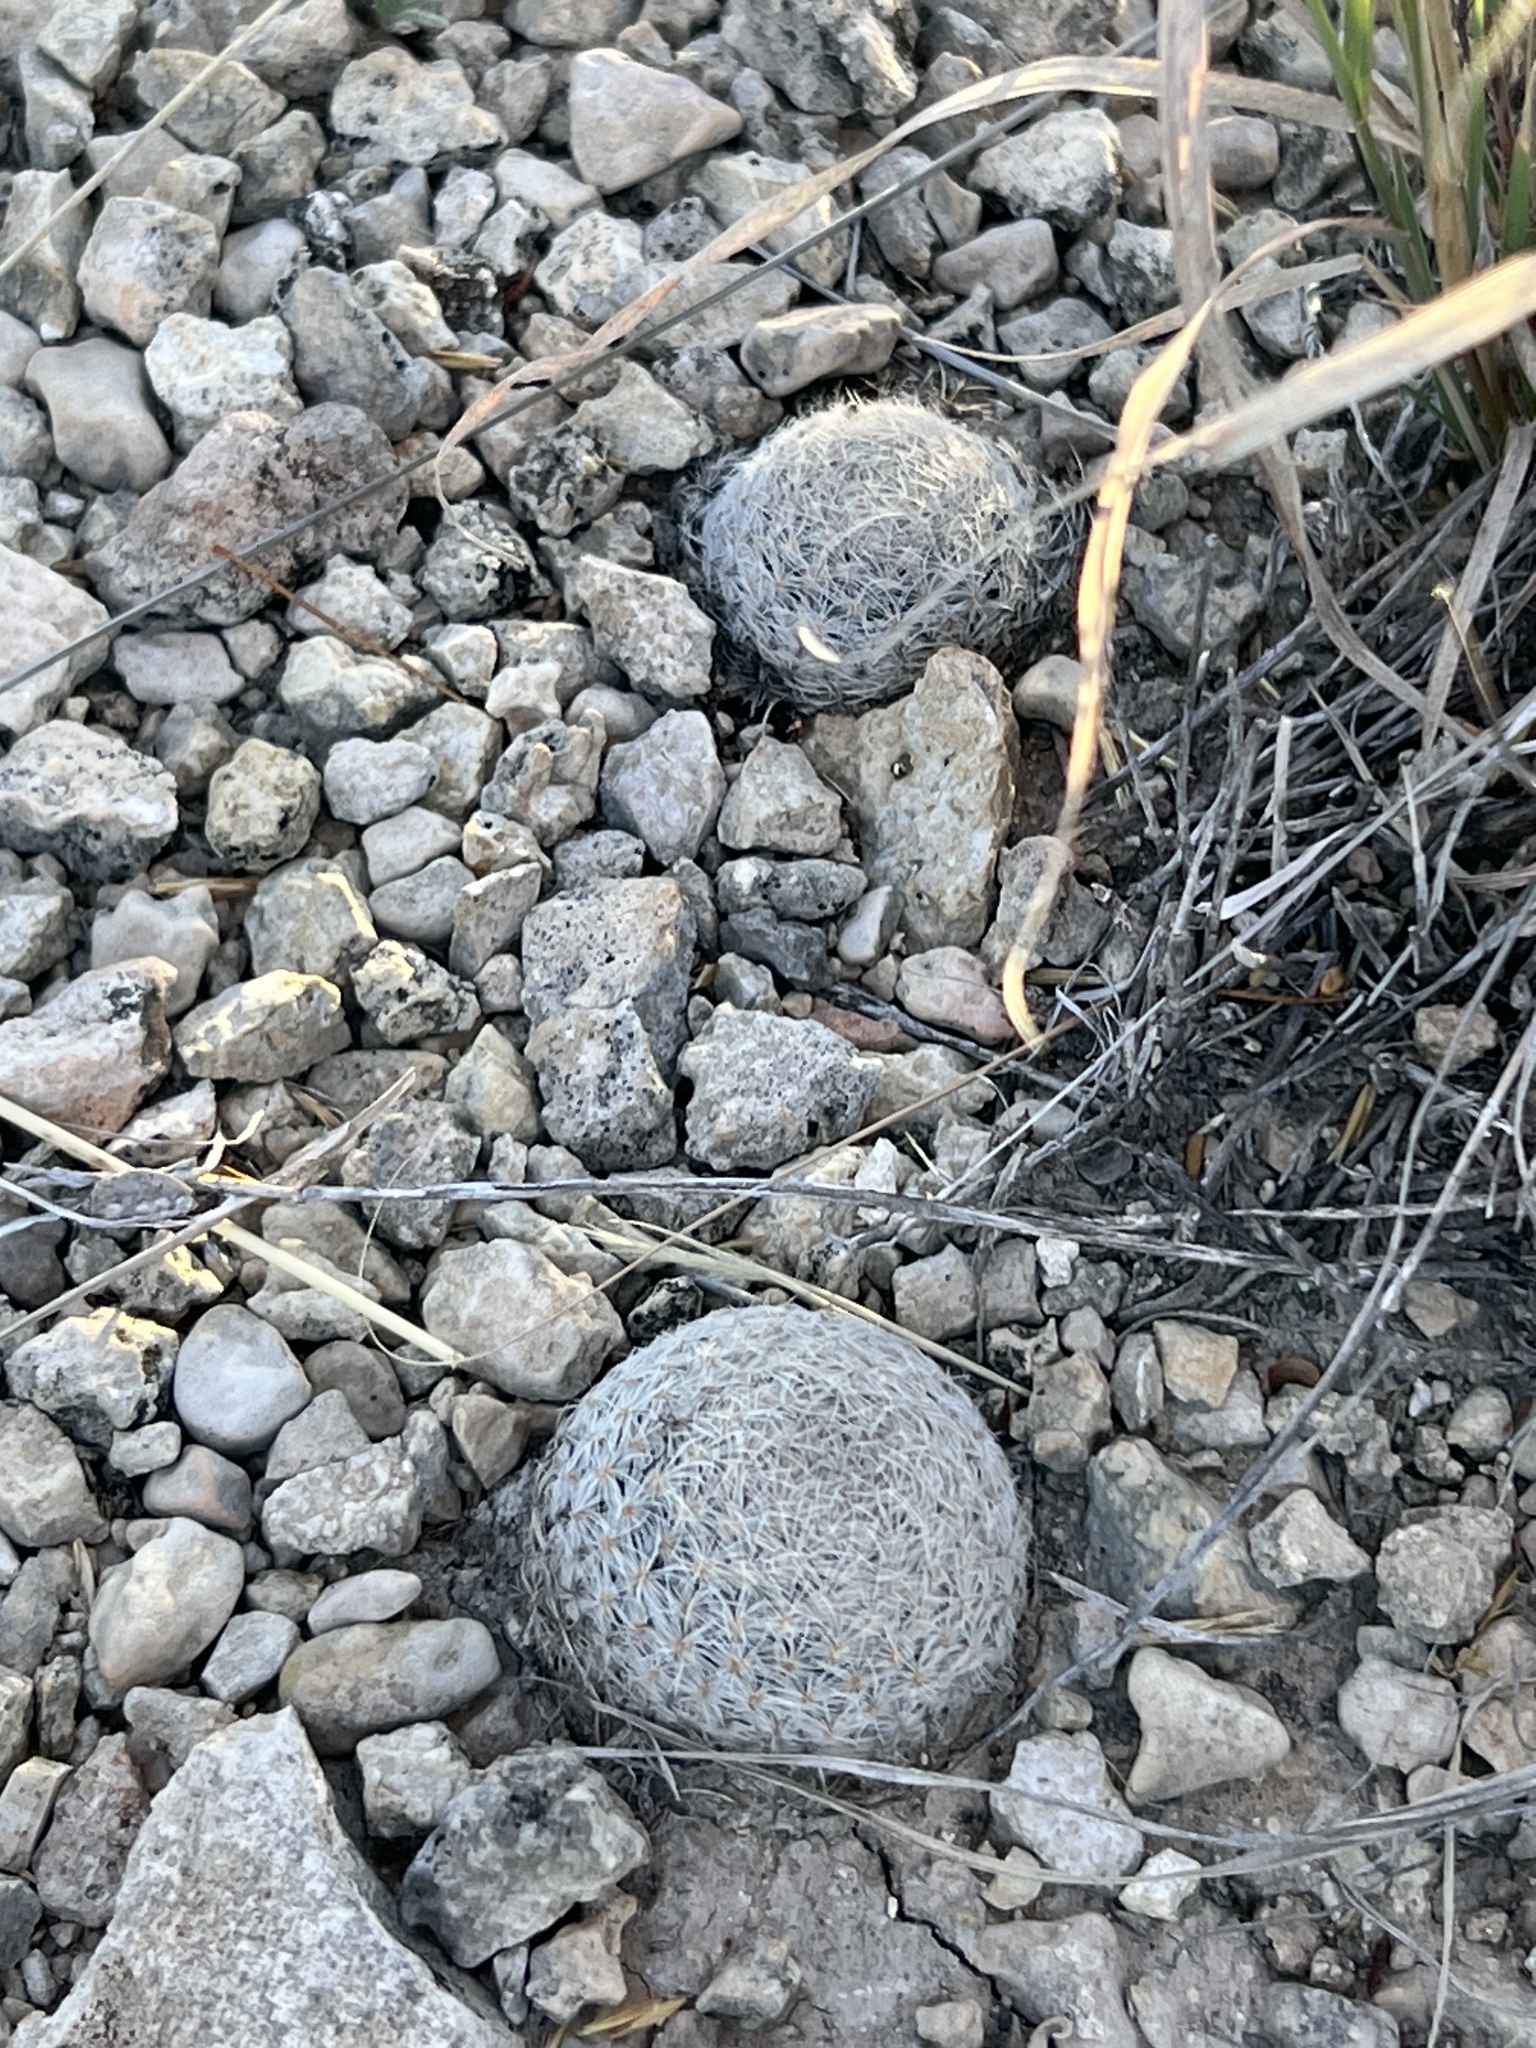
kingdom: Plantae
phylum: Tracheophyta
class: Magnoliopsida
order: Caryophyllales
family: Cactaceae
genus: Mammillaria
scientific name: Mammillaria lasiacantha
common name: Lace-spine nipple cactus
